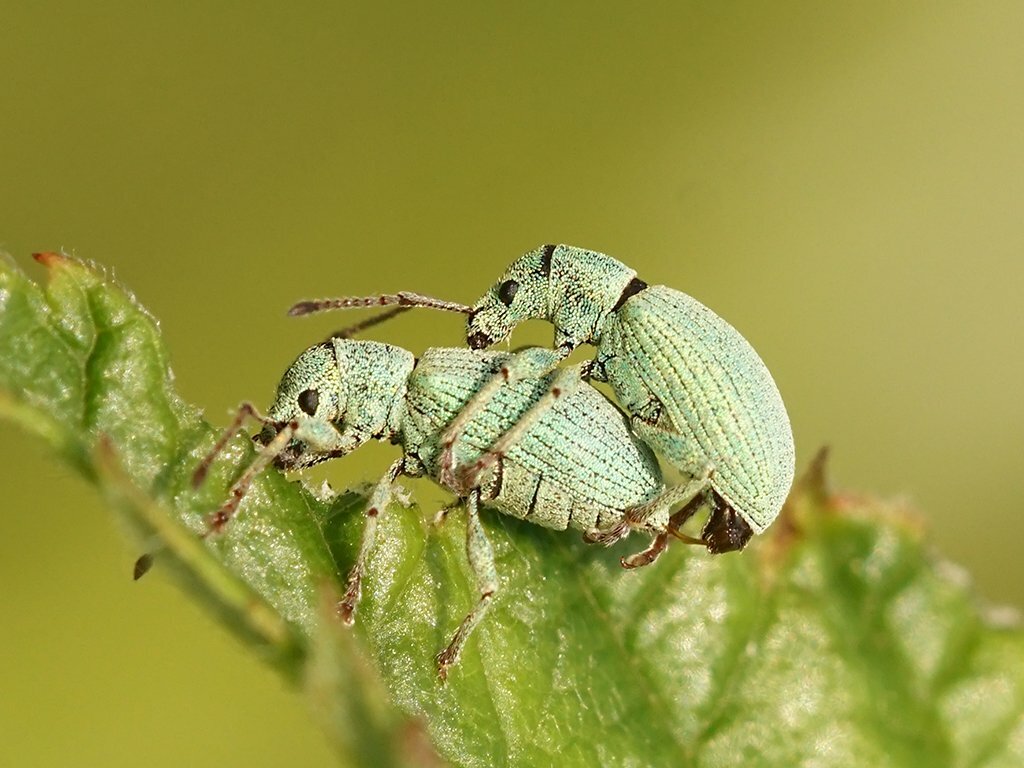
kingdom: Animalia
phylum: Arthropoda
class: Insecta
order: Coleoptera
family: Curculionidae
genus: Phyllobius
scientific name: Phyllobius virideaeris
